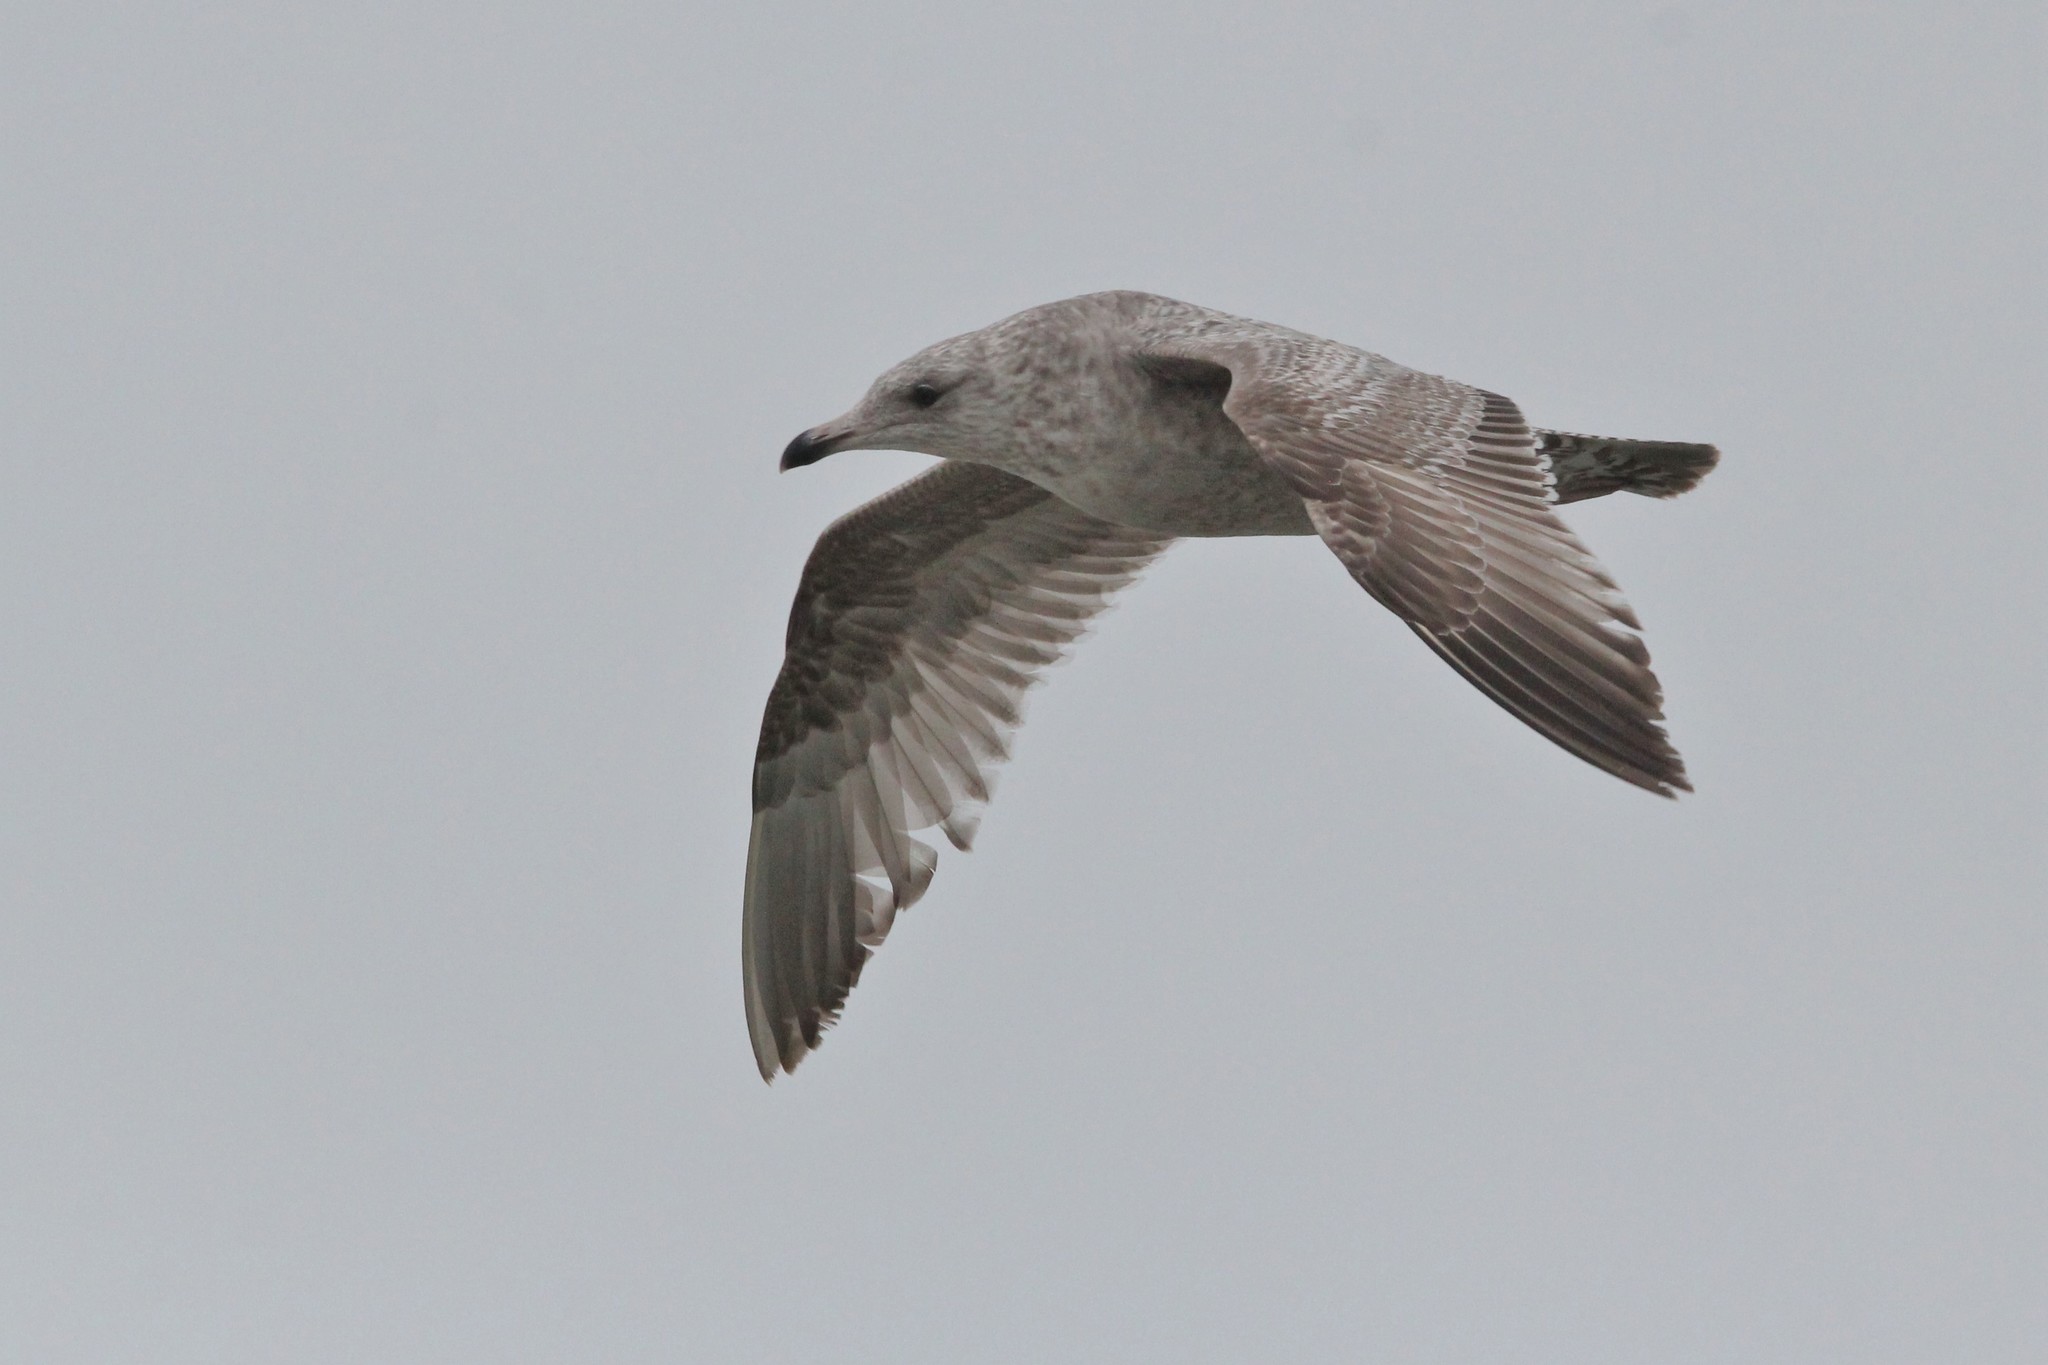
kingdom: Animalia
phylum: Chordata
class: Aves
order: Charadriiformes
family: Laridae
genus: Larus
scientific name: Larus argentatus
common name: Herring gull
